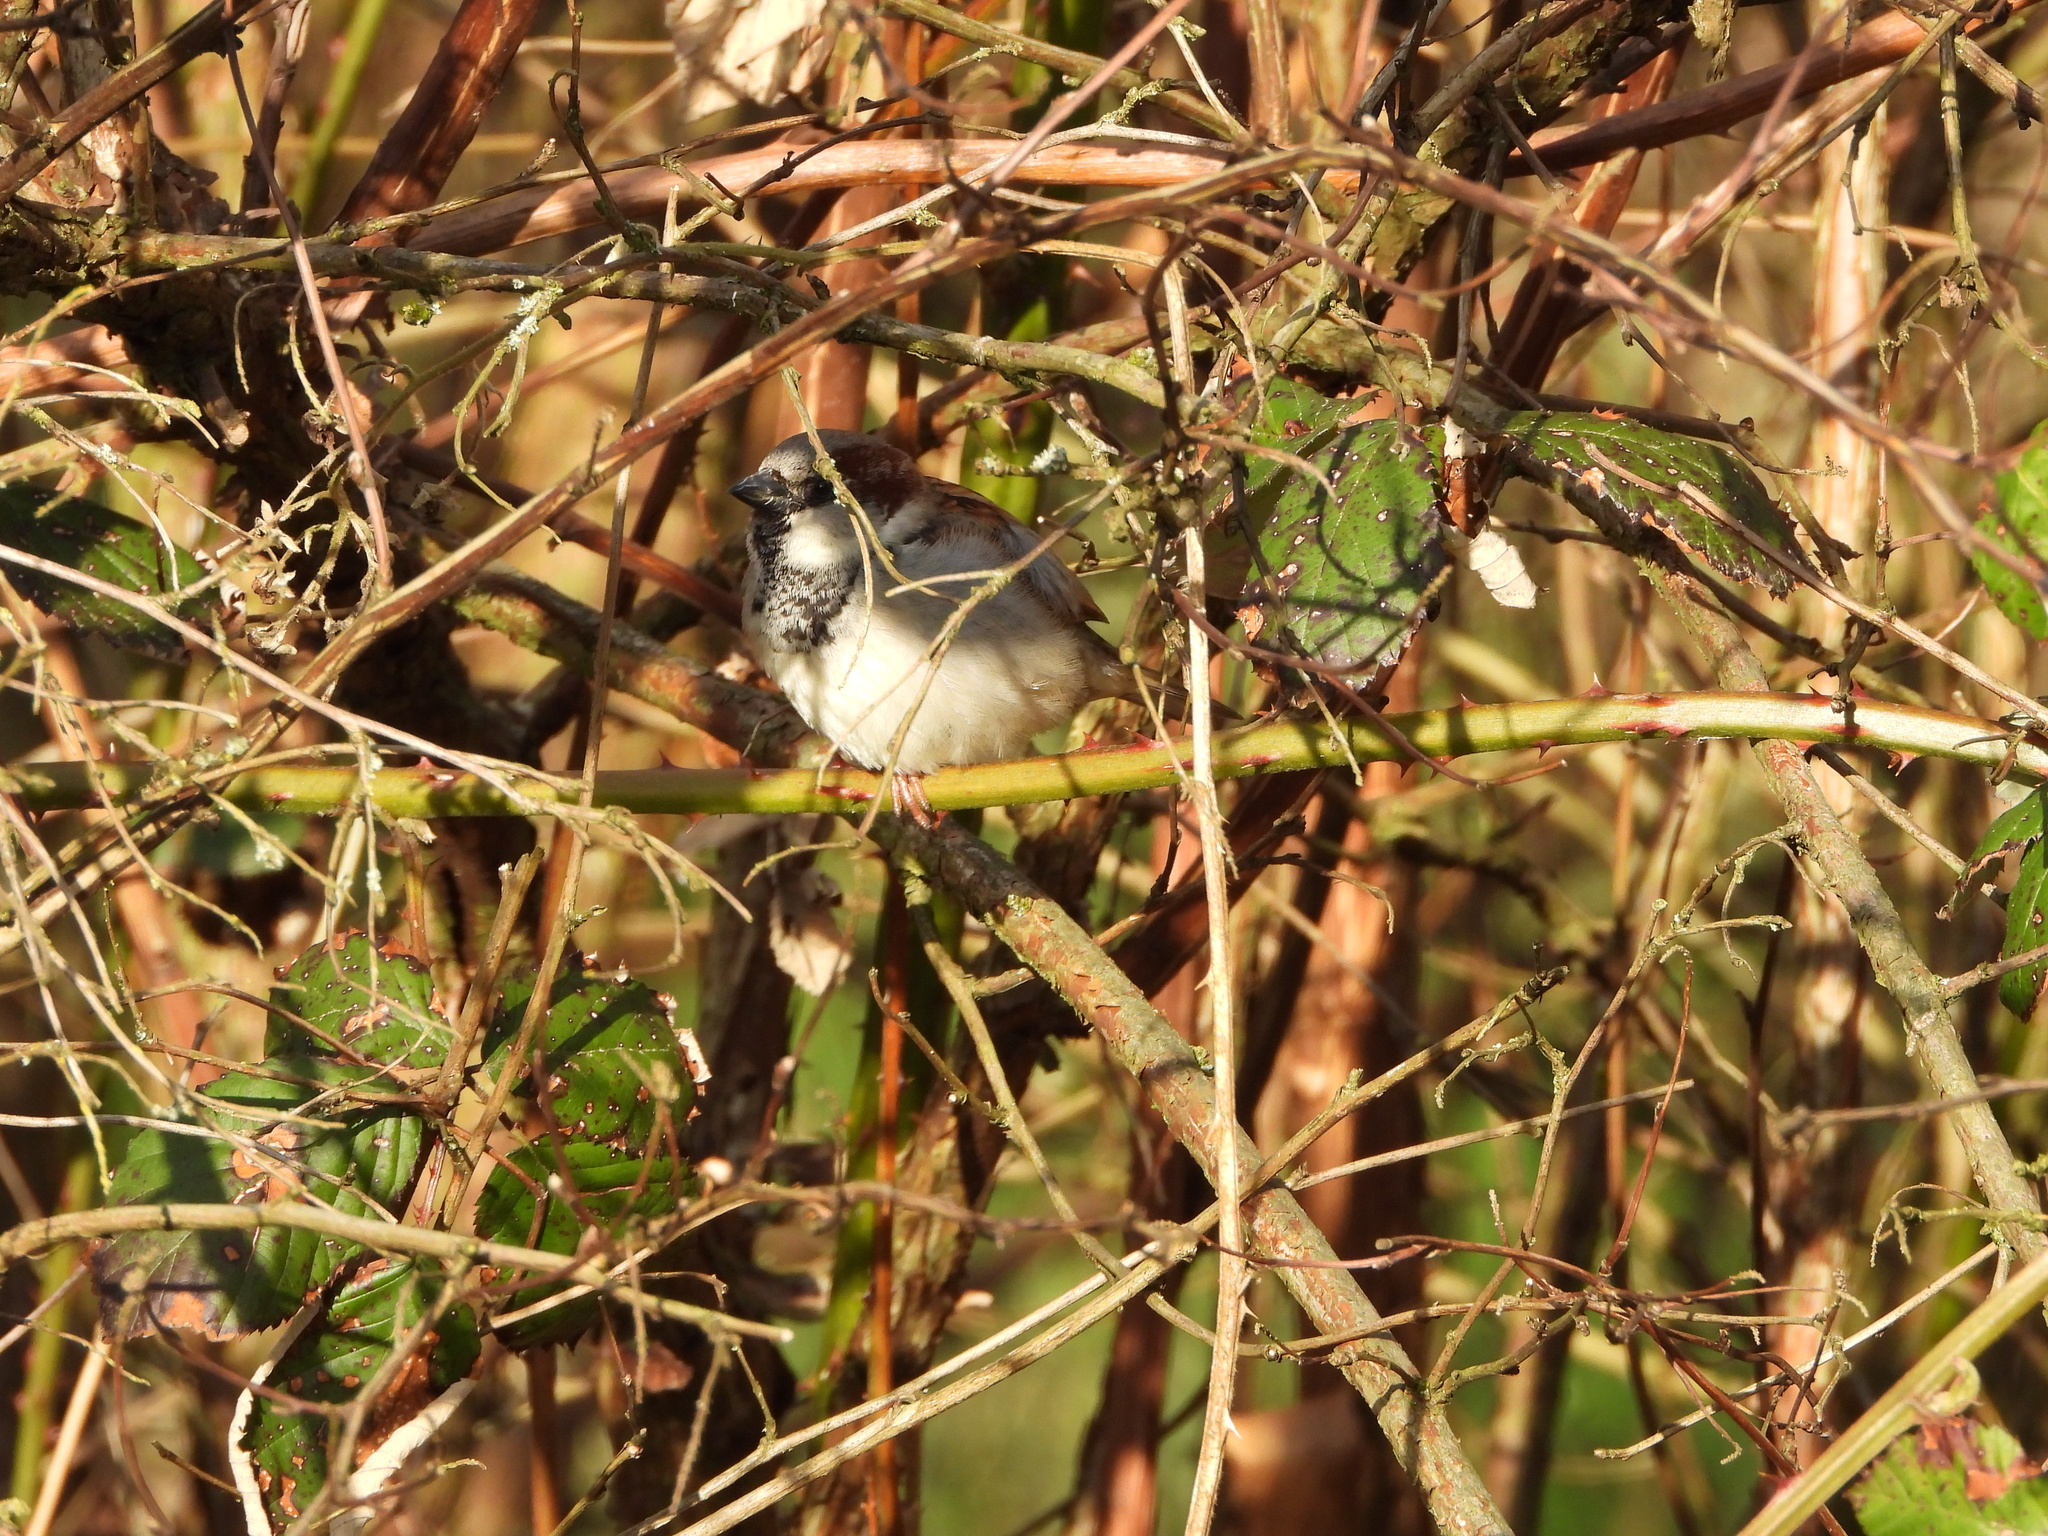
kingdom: Animalia
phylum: Chordata
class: Aves
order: Passeriformes
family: Passeridae
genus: Passer
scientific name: Passer domesticus
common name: House sparrow
